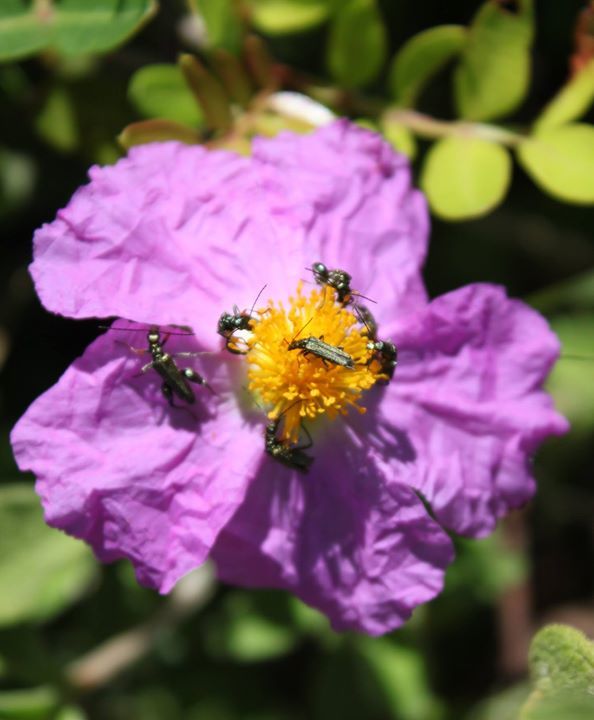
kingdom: Plantae
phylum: Tracheophyta
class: Magnoliopsida
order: Malvales
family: Cistaceae
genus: Cistus
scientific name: Cistus creticus
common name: Cretan rockrose
